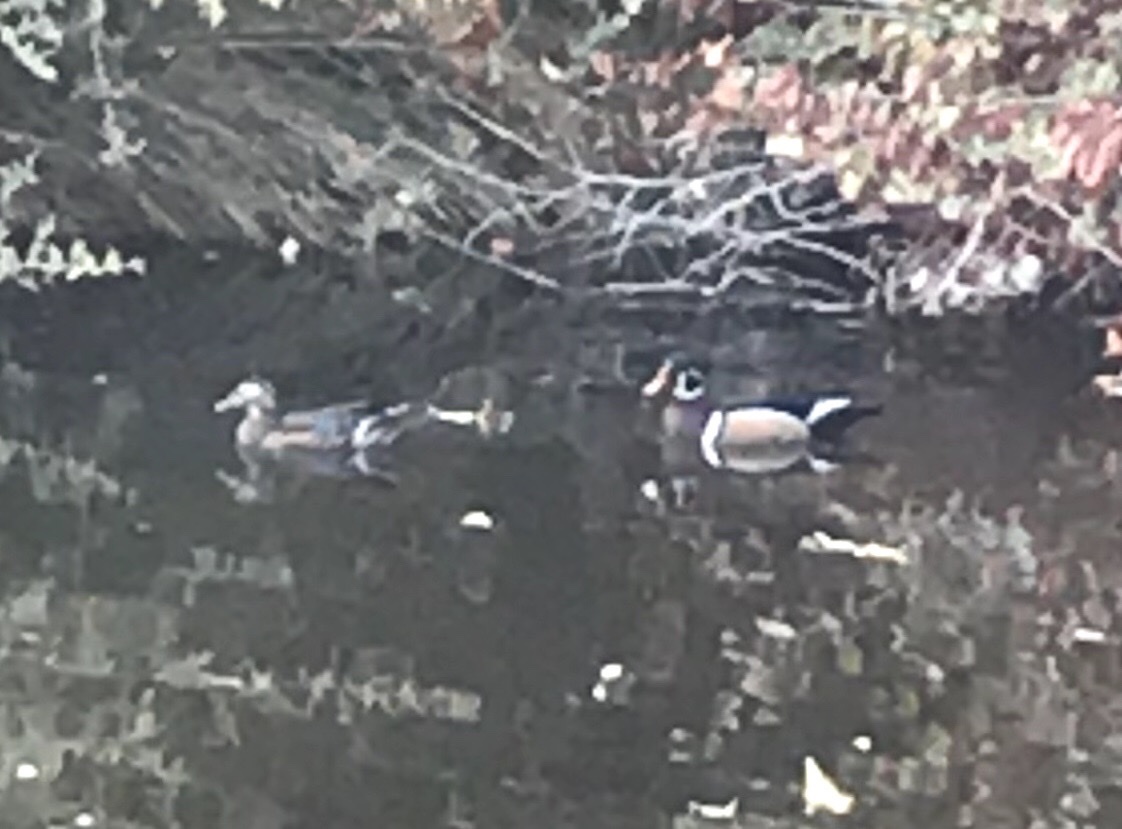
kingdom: Animalia
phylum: Chordata
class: Aves
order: Anseriformes
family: Anatidae
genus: Aix
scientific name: Aix sponsa
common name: Wood duck
